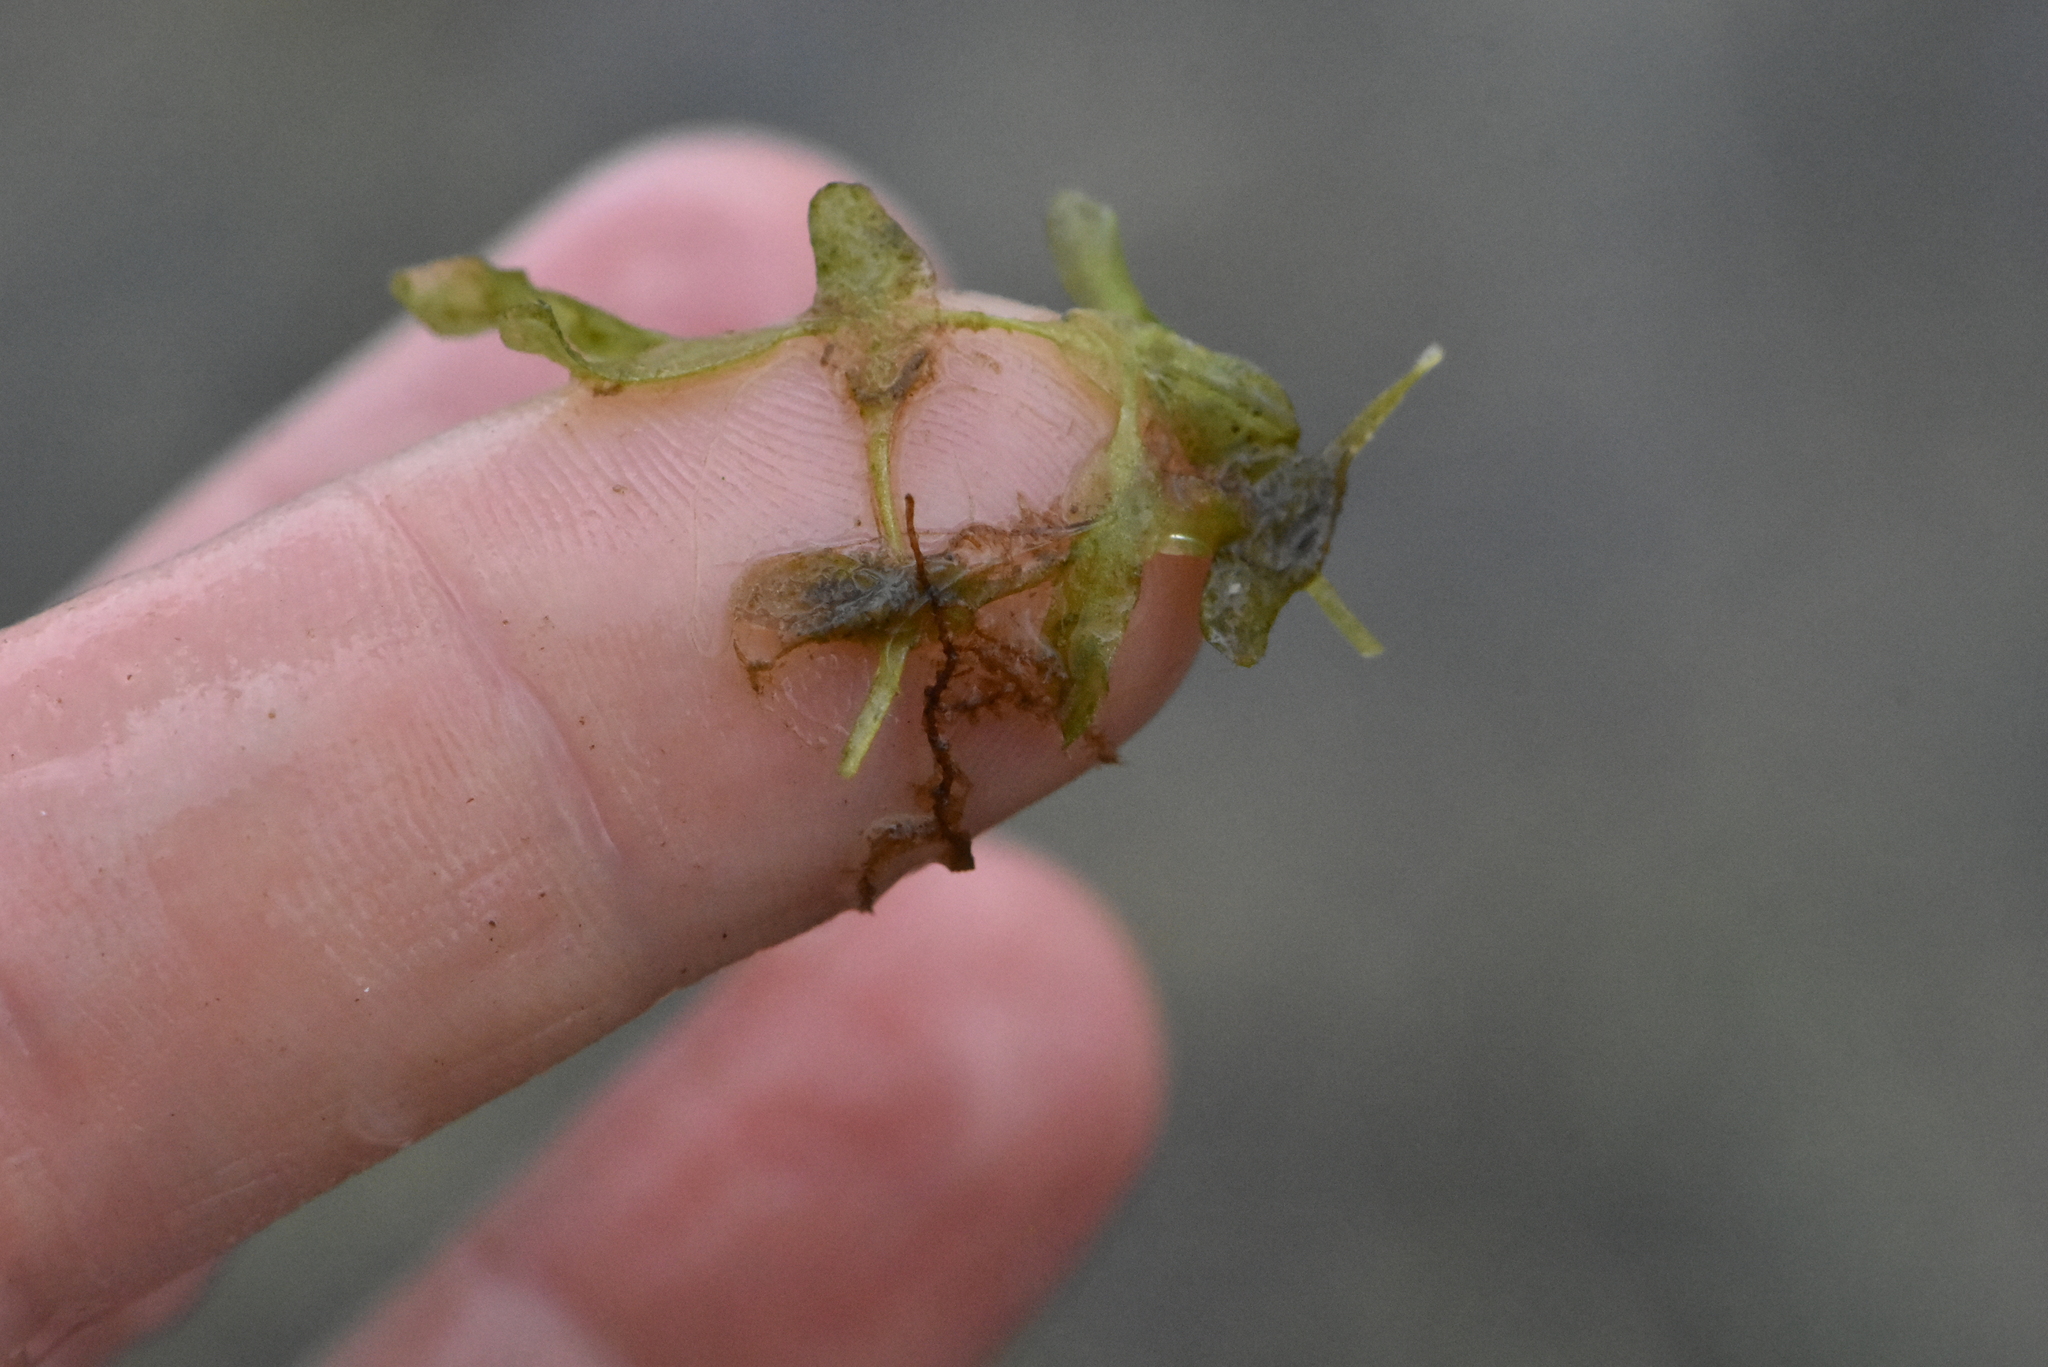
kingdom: Plantae
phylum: Tracheophyta
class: Liliopsida
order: Alismatales
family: Araceae
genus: Lemna
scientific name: Lemna trisulca
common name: Ivy-leaved duckweed
